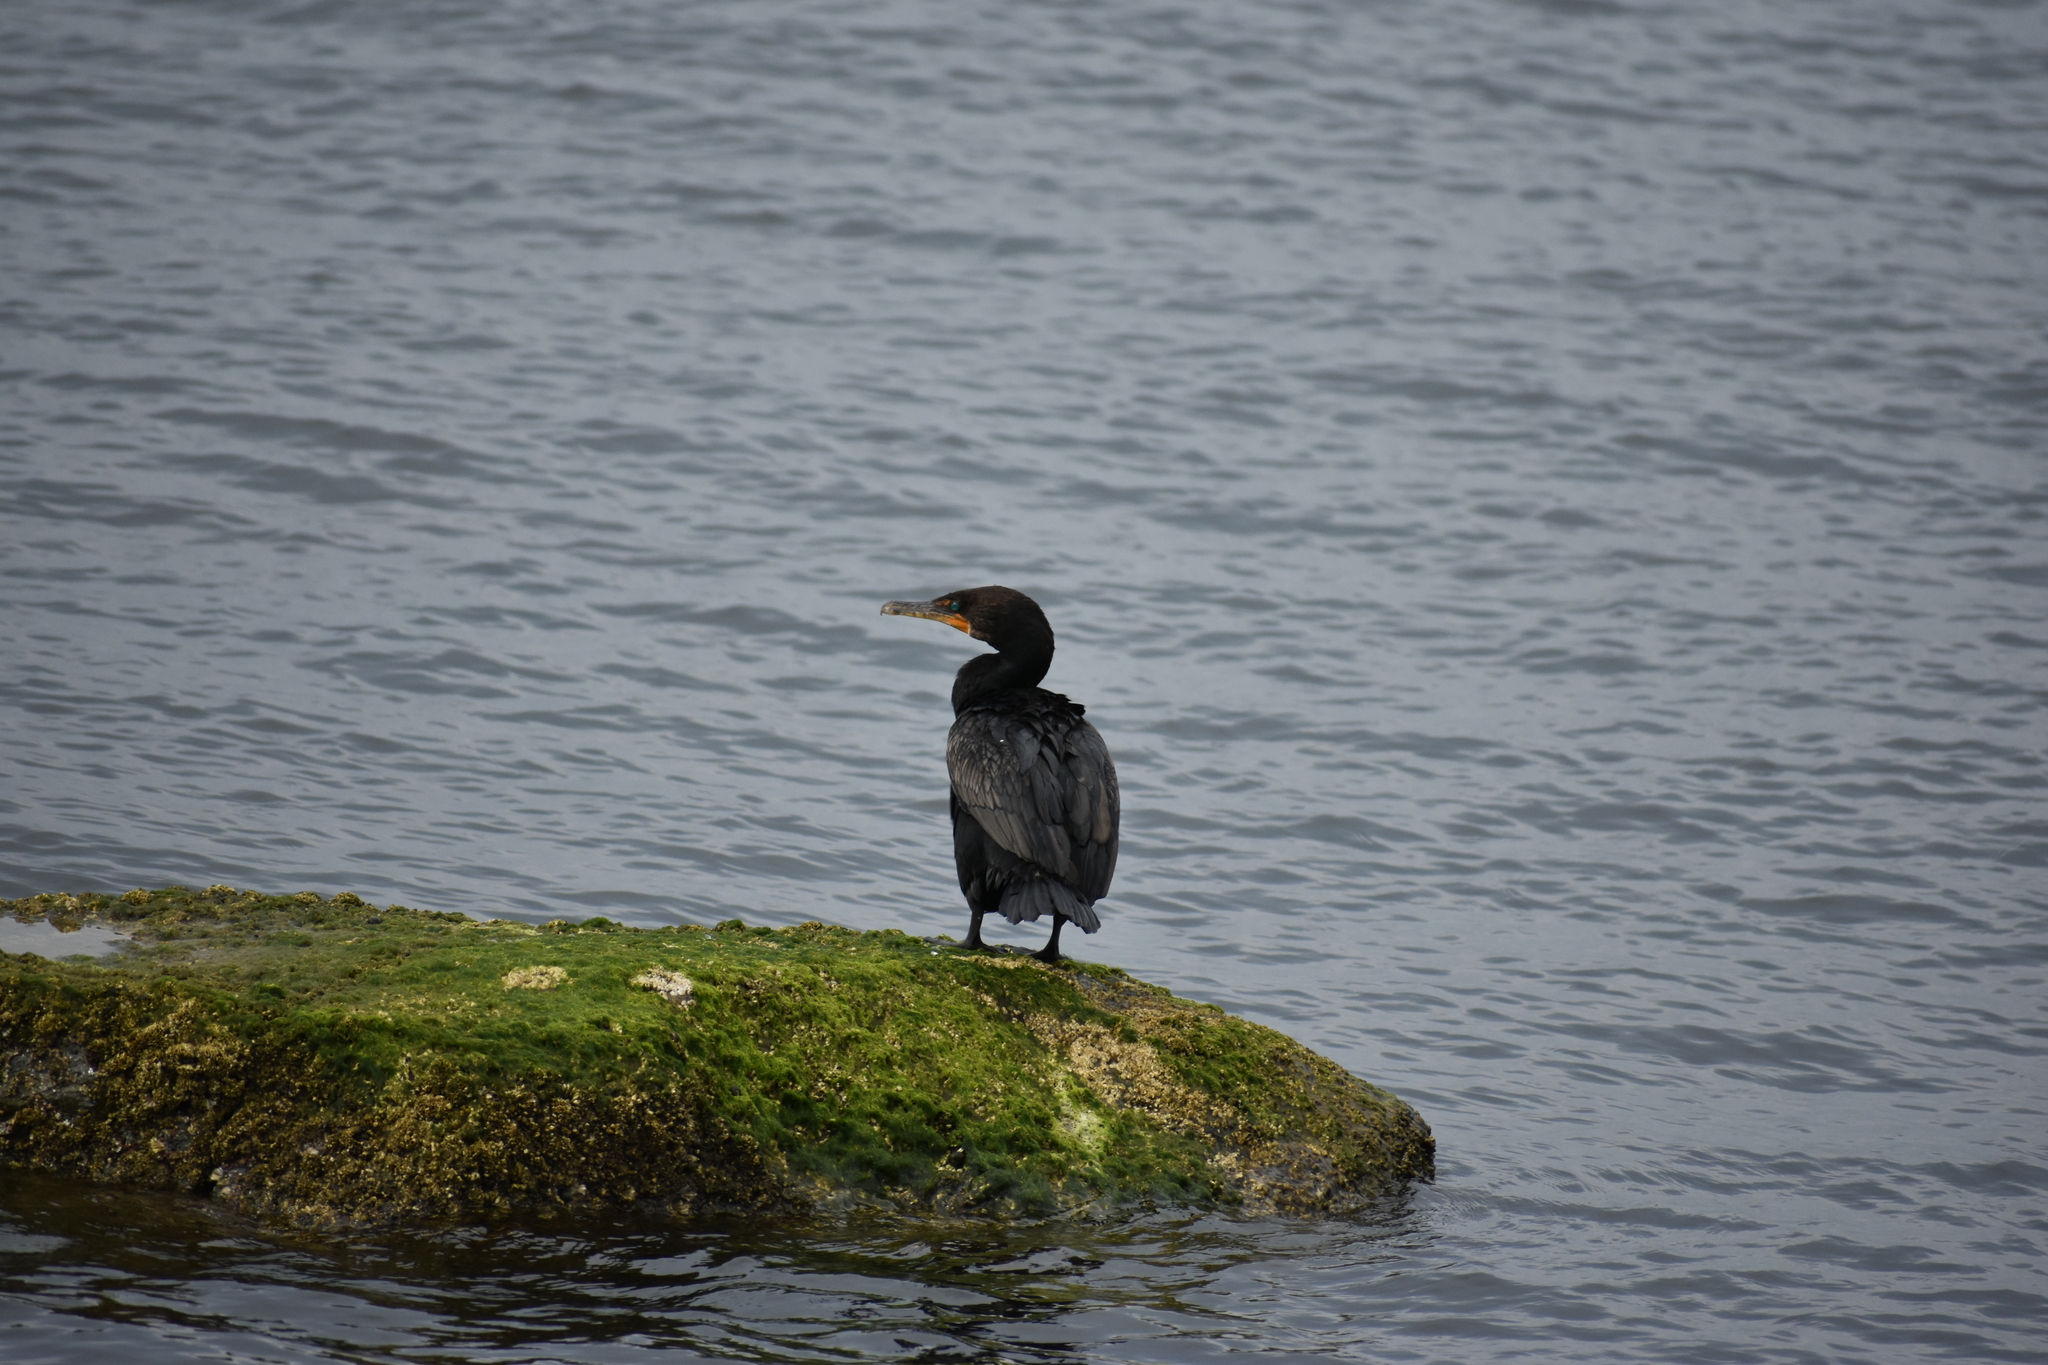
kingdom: Animalia
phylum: Chordata
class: Aves
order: Suliformes
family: Phalacrocoracidae
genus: Phalacrocorax
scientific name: Phalacrocorax auritus
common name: Double-crested cormorant
